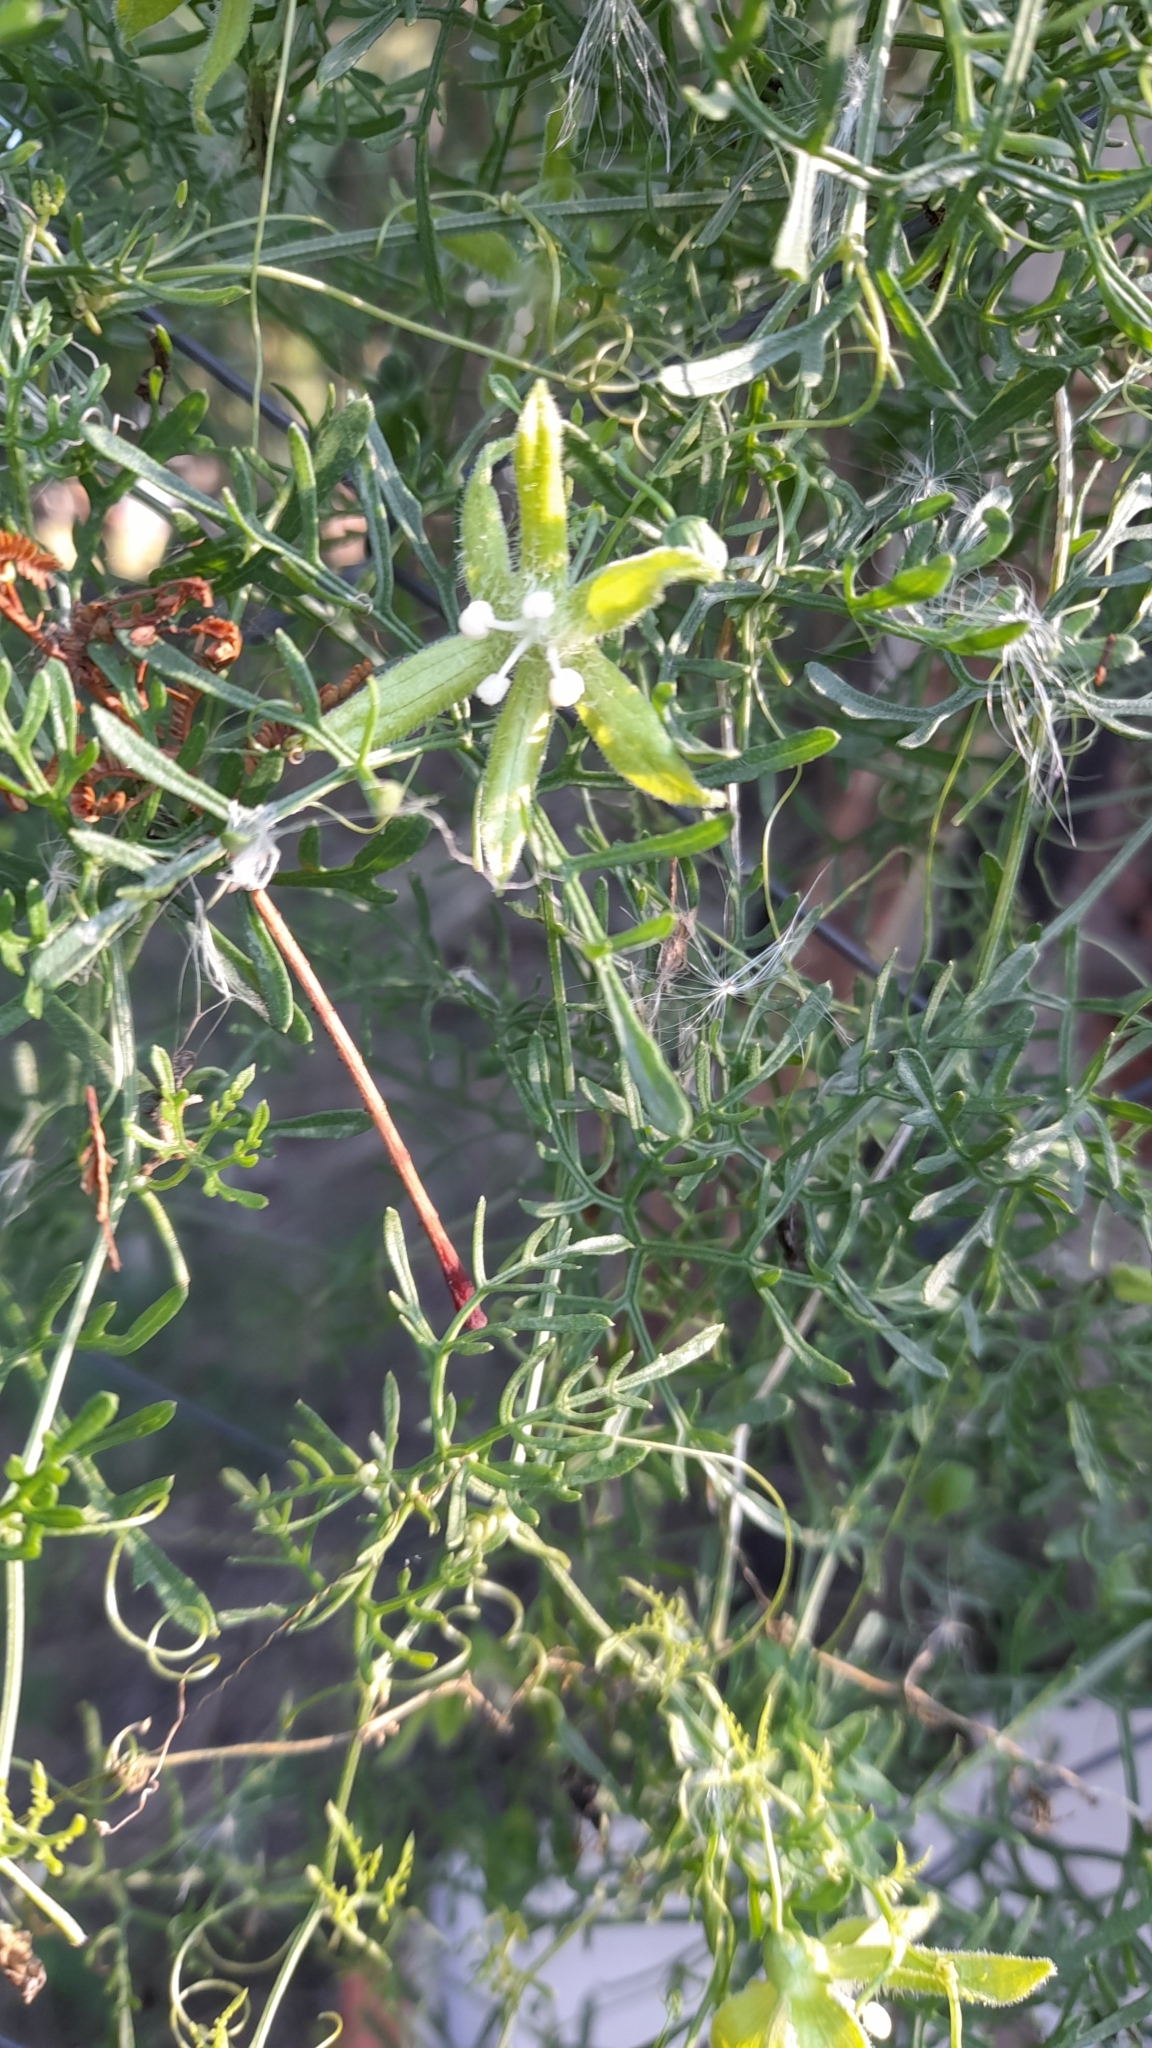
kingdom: Plantae
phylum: Tracheophyta
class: Magnoliopsida
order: Cucurbitales
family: Cucurbitaceae
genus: Abobra
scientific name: Abobra tenuifolia
